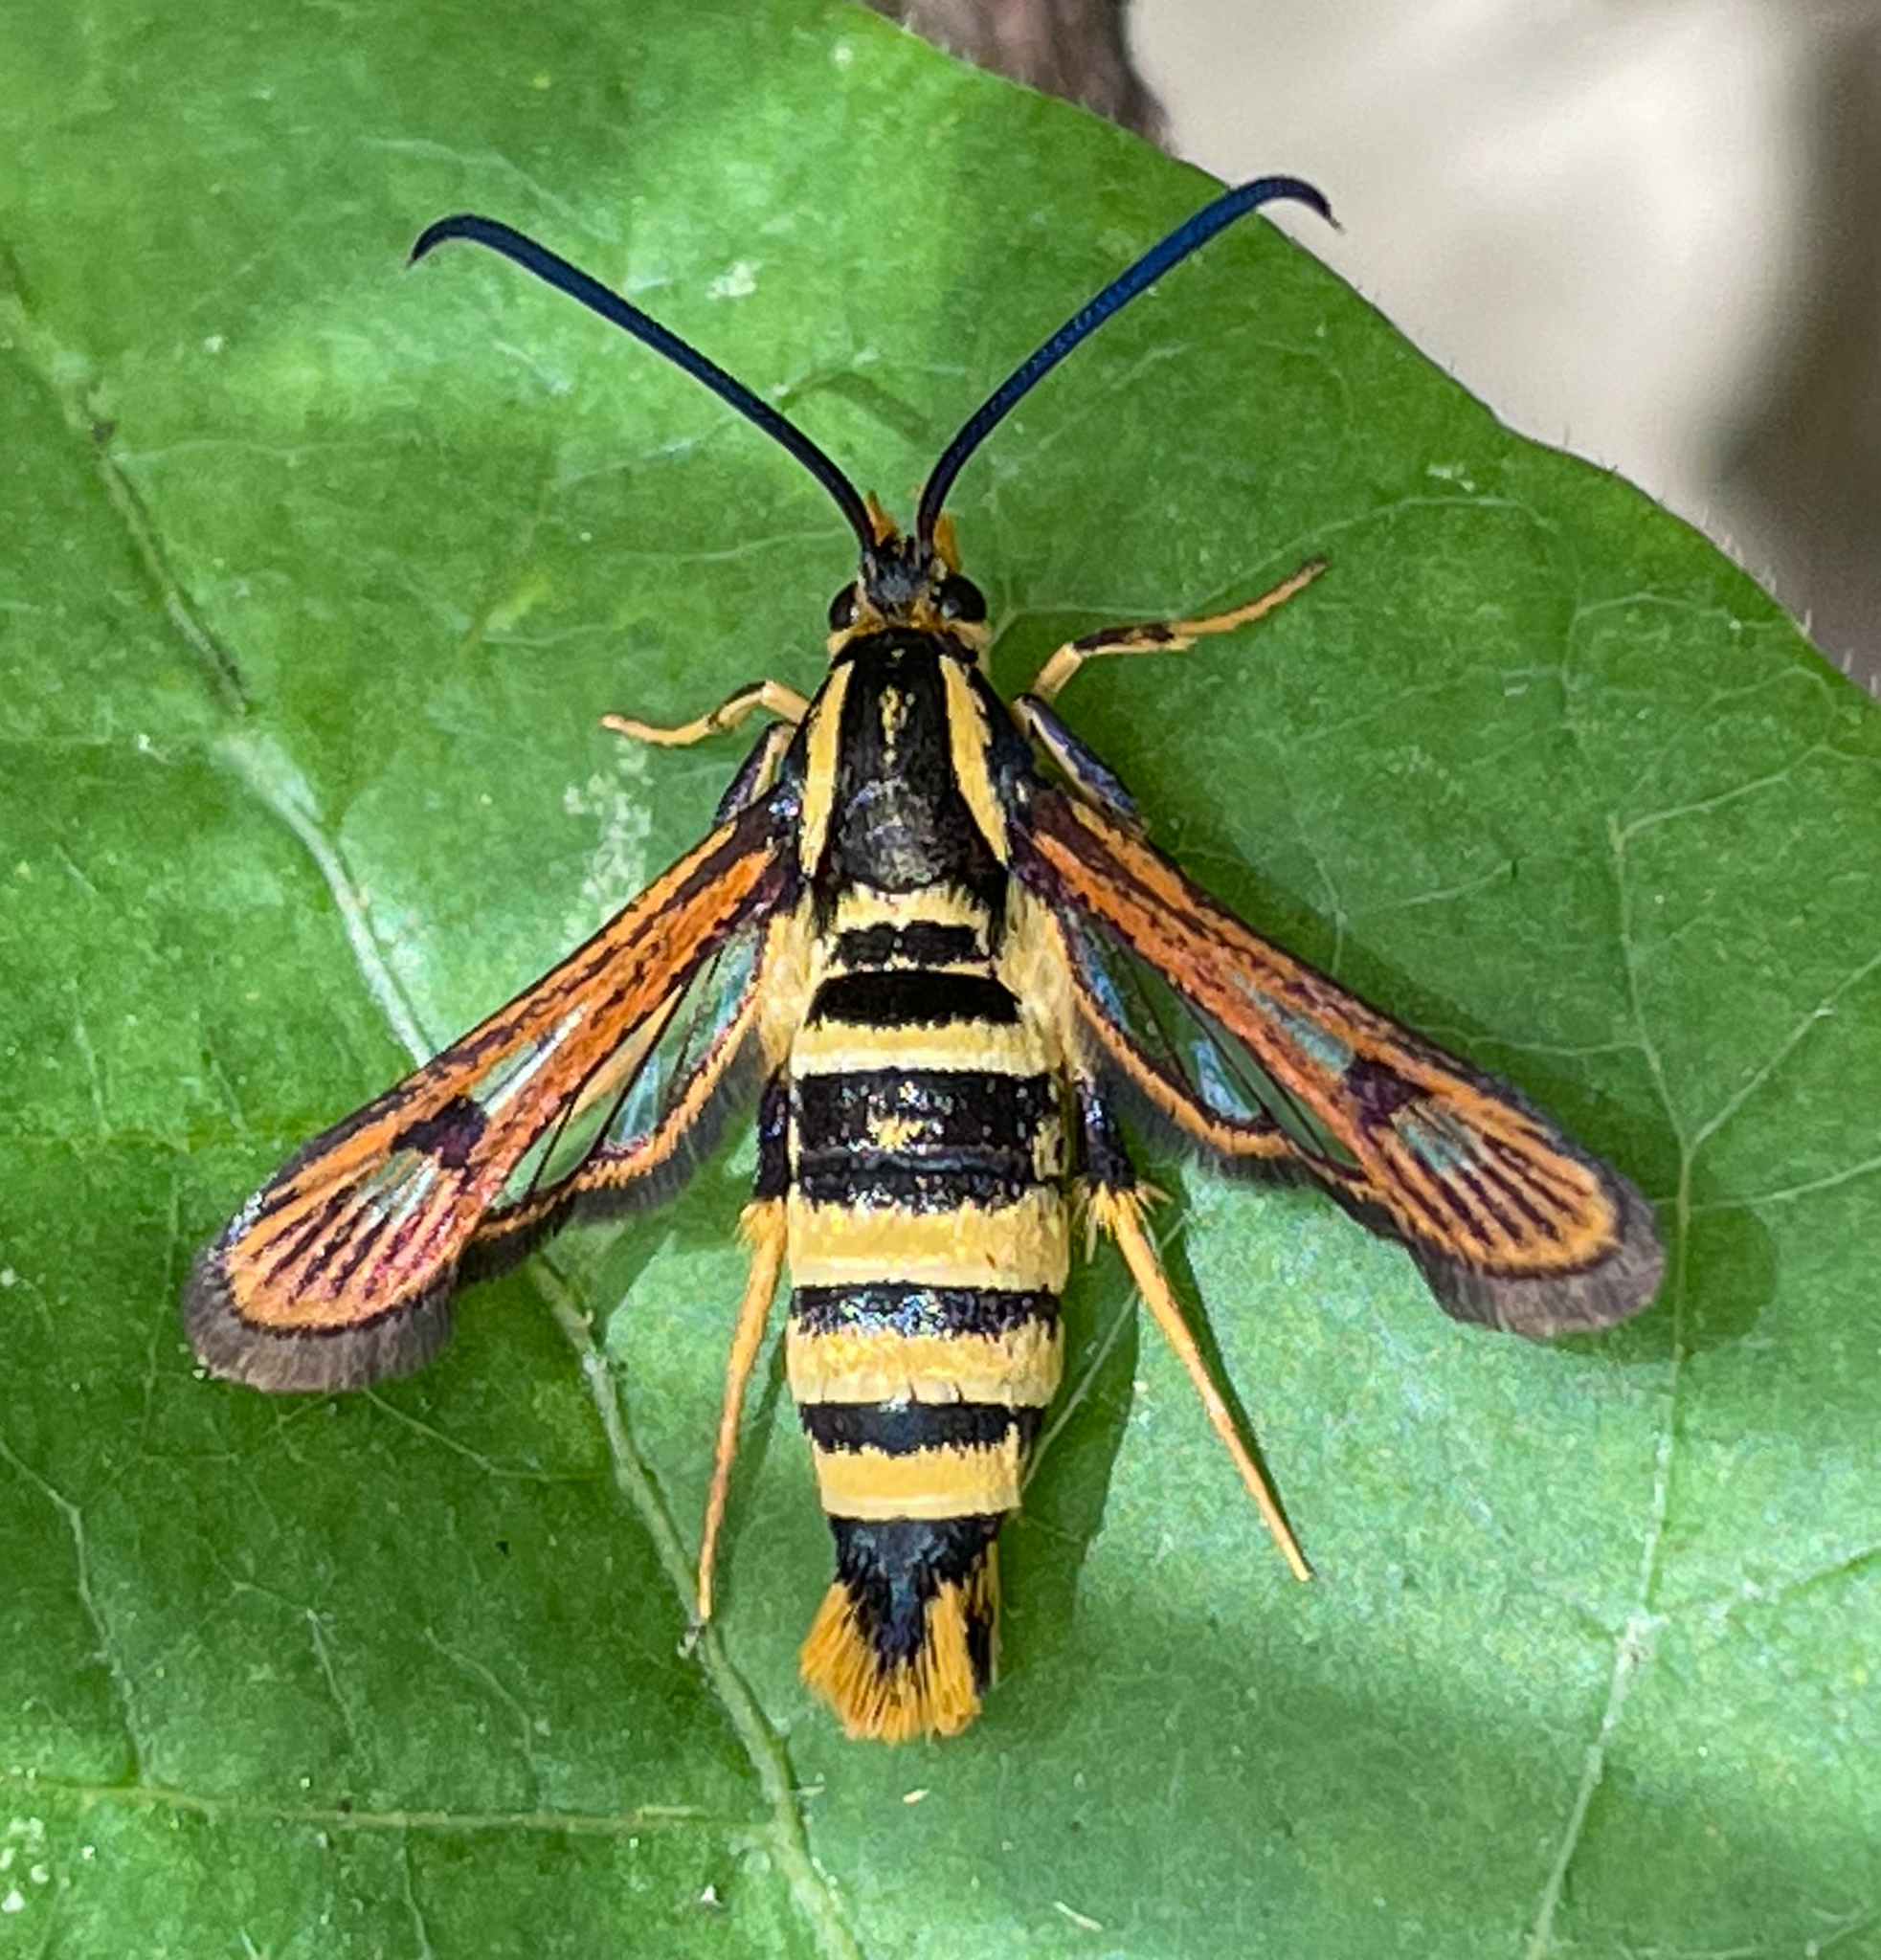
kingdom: Animalia
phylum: Arthropoda
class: Insecta
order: Lepidoptera
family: Sesiidae
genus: Synanthedon
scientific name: Synanthedon resplendens
